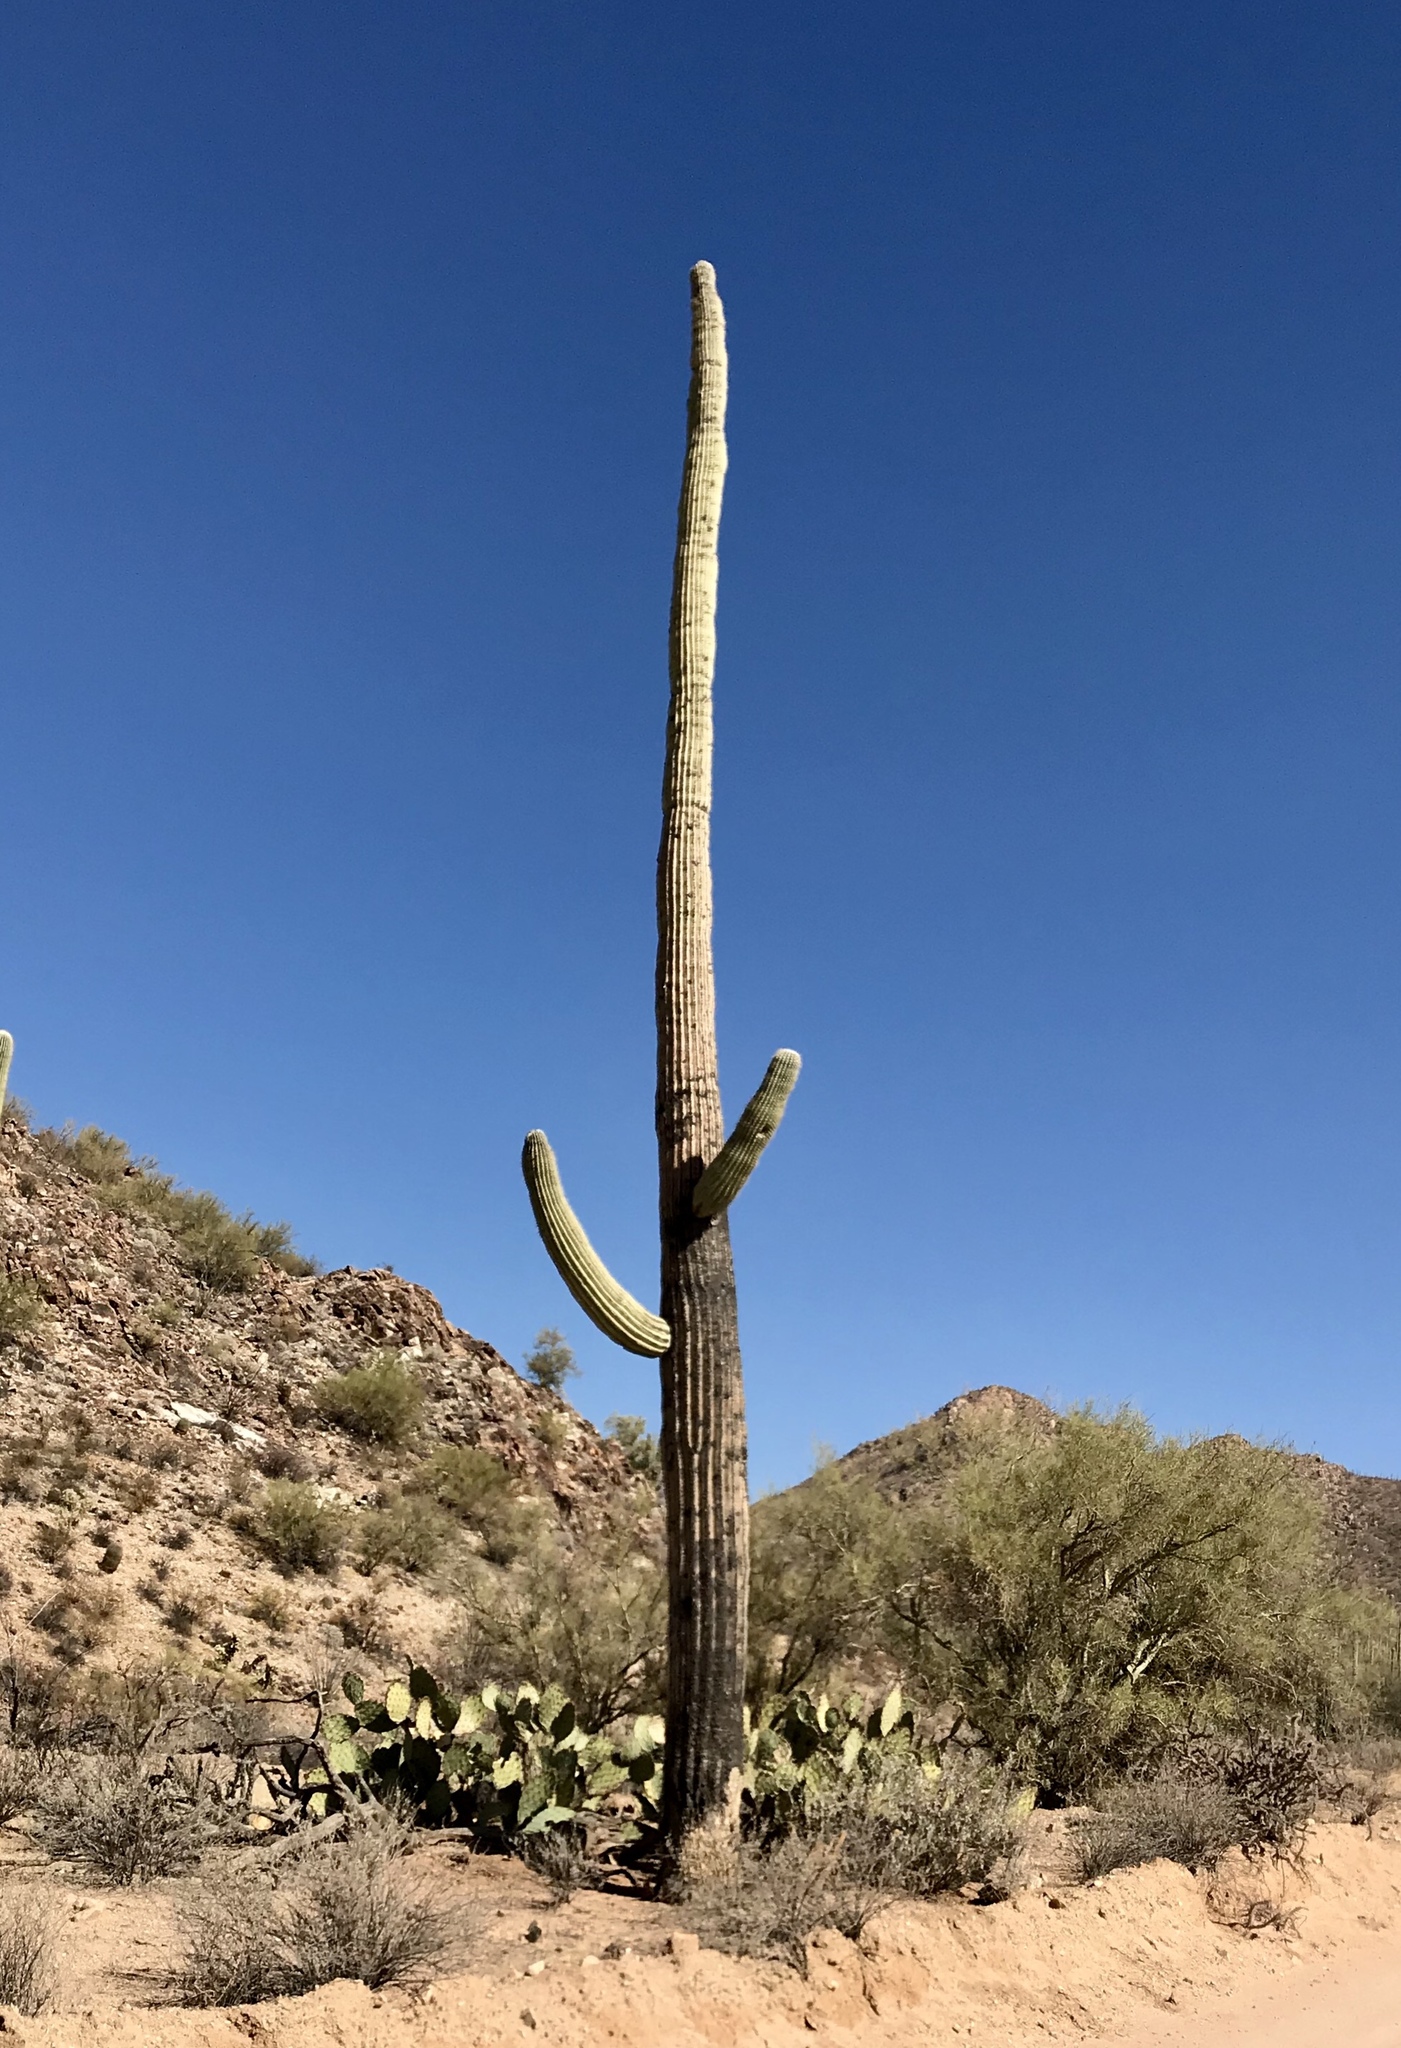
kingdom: Plantae
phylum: Tracheophyta
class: Magnoliopsida
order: Caryophyllales
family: Cactaceae
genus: Carnegiea
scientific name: Carnegiea gigantea
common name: Saguaro
